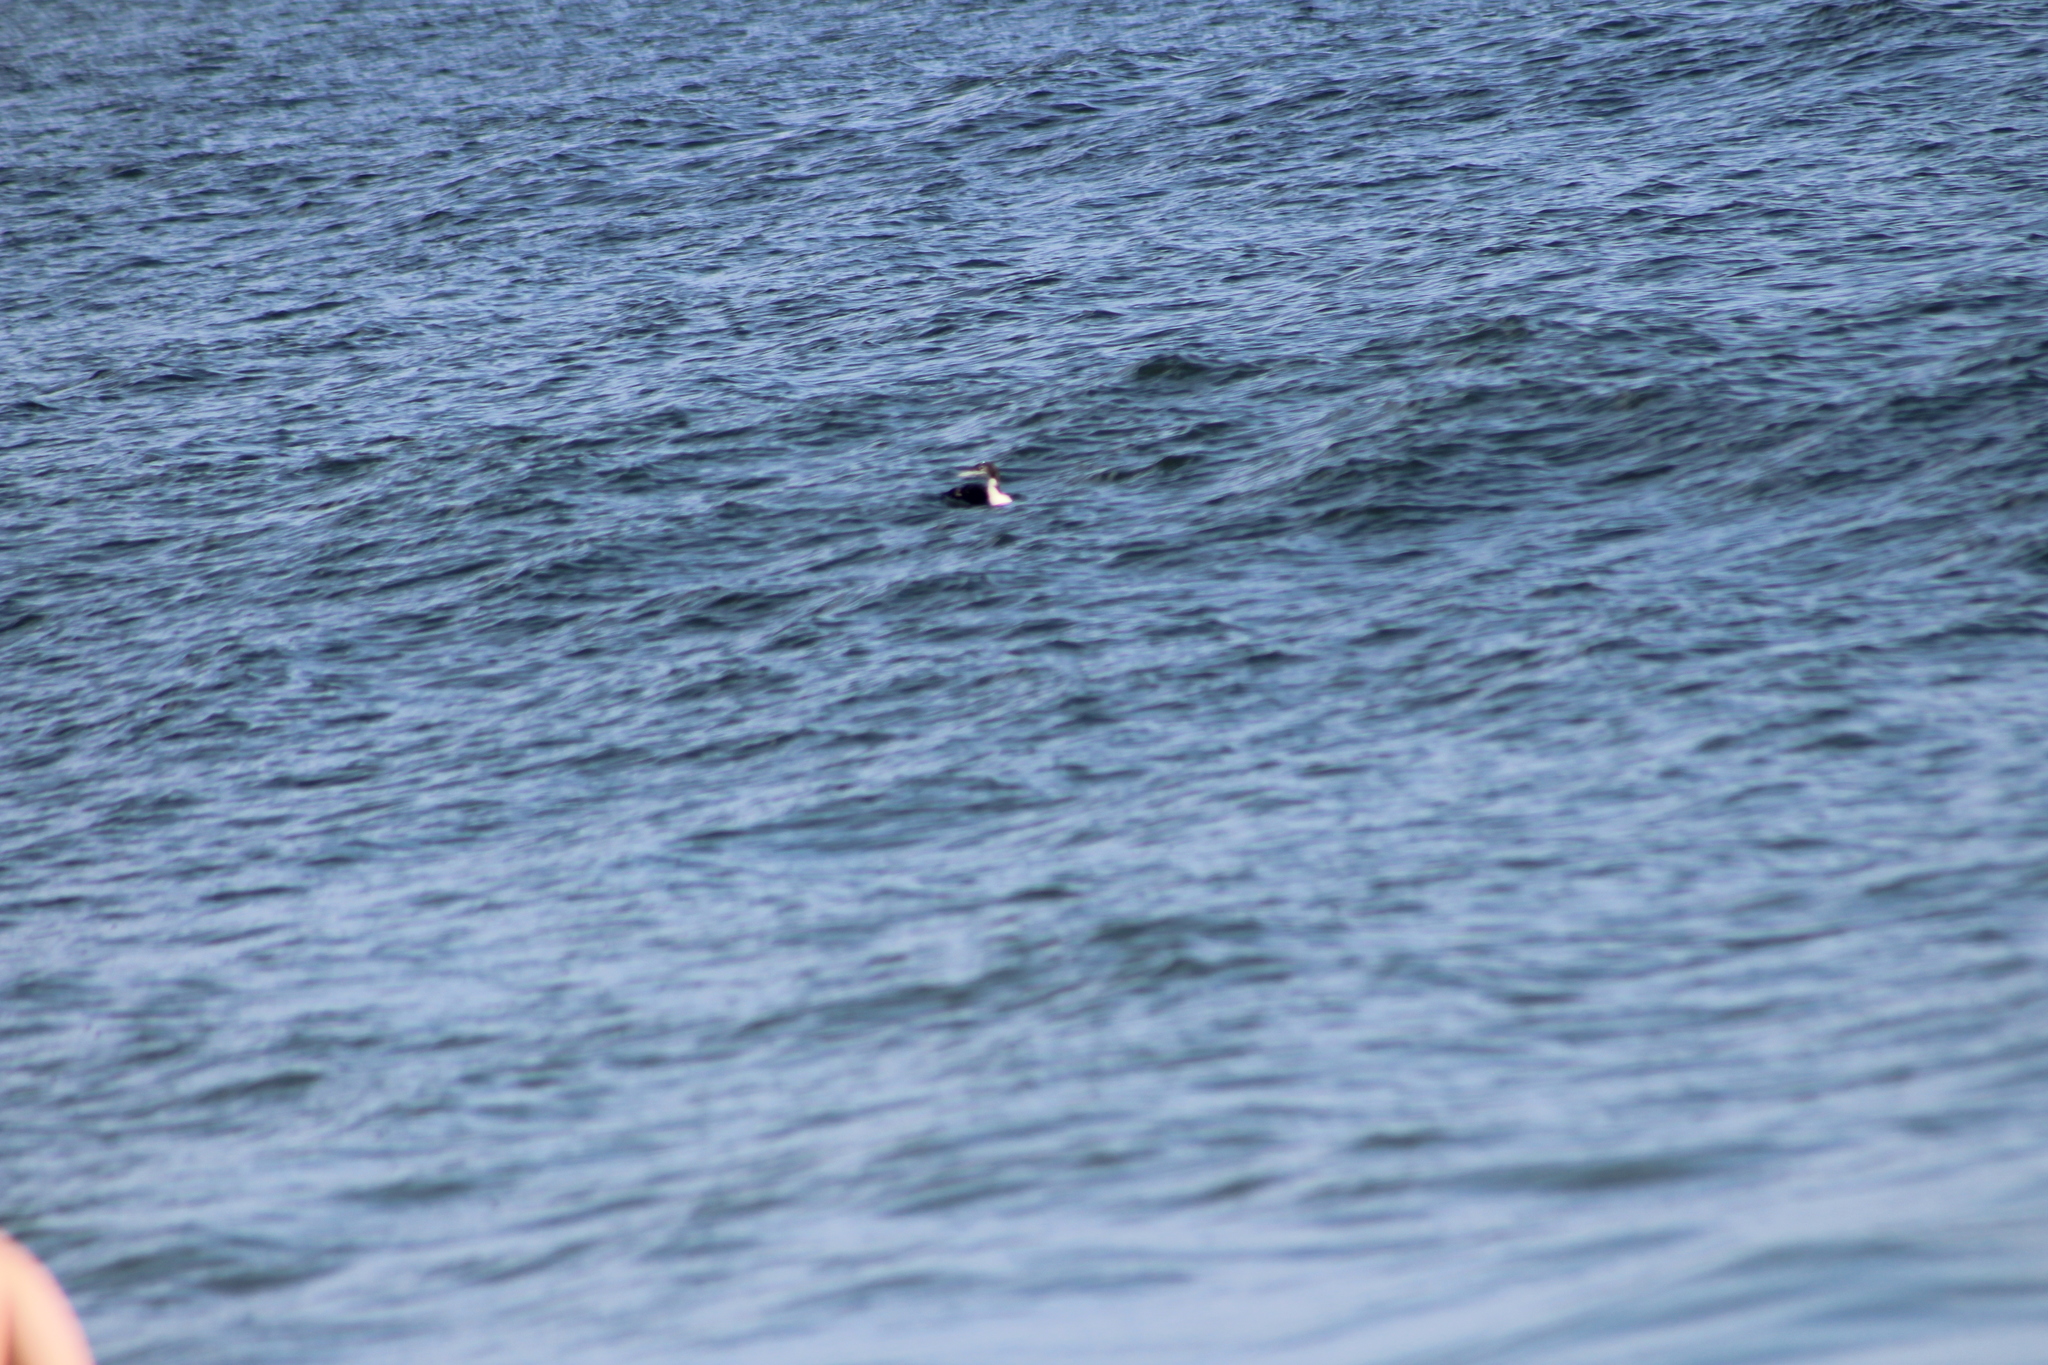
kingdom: Animalia
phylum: Chordata
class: Aves
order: Gaviiformes
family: Gaviidae
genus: Gavia
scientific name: Gavia immer
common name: Common loon
